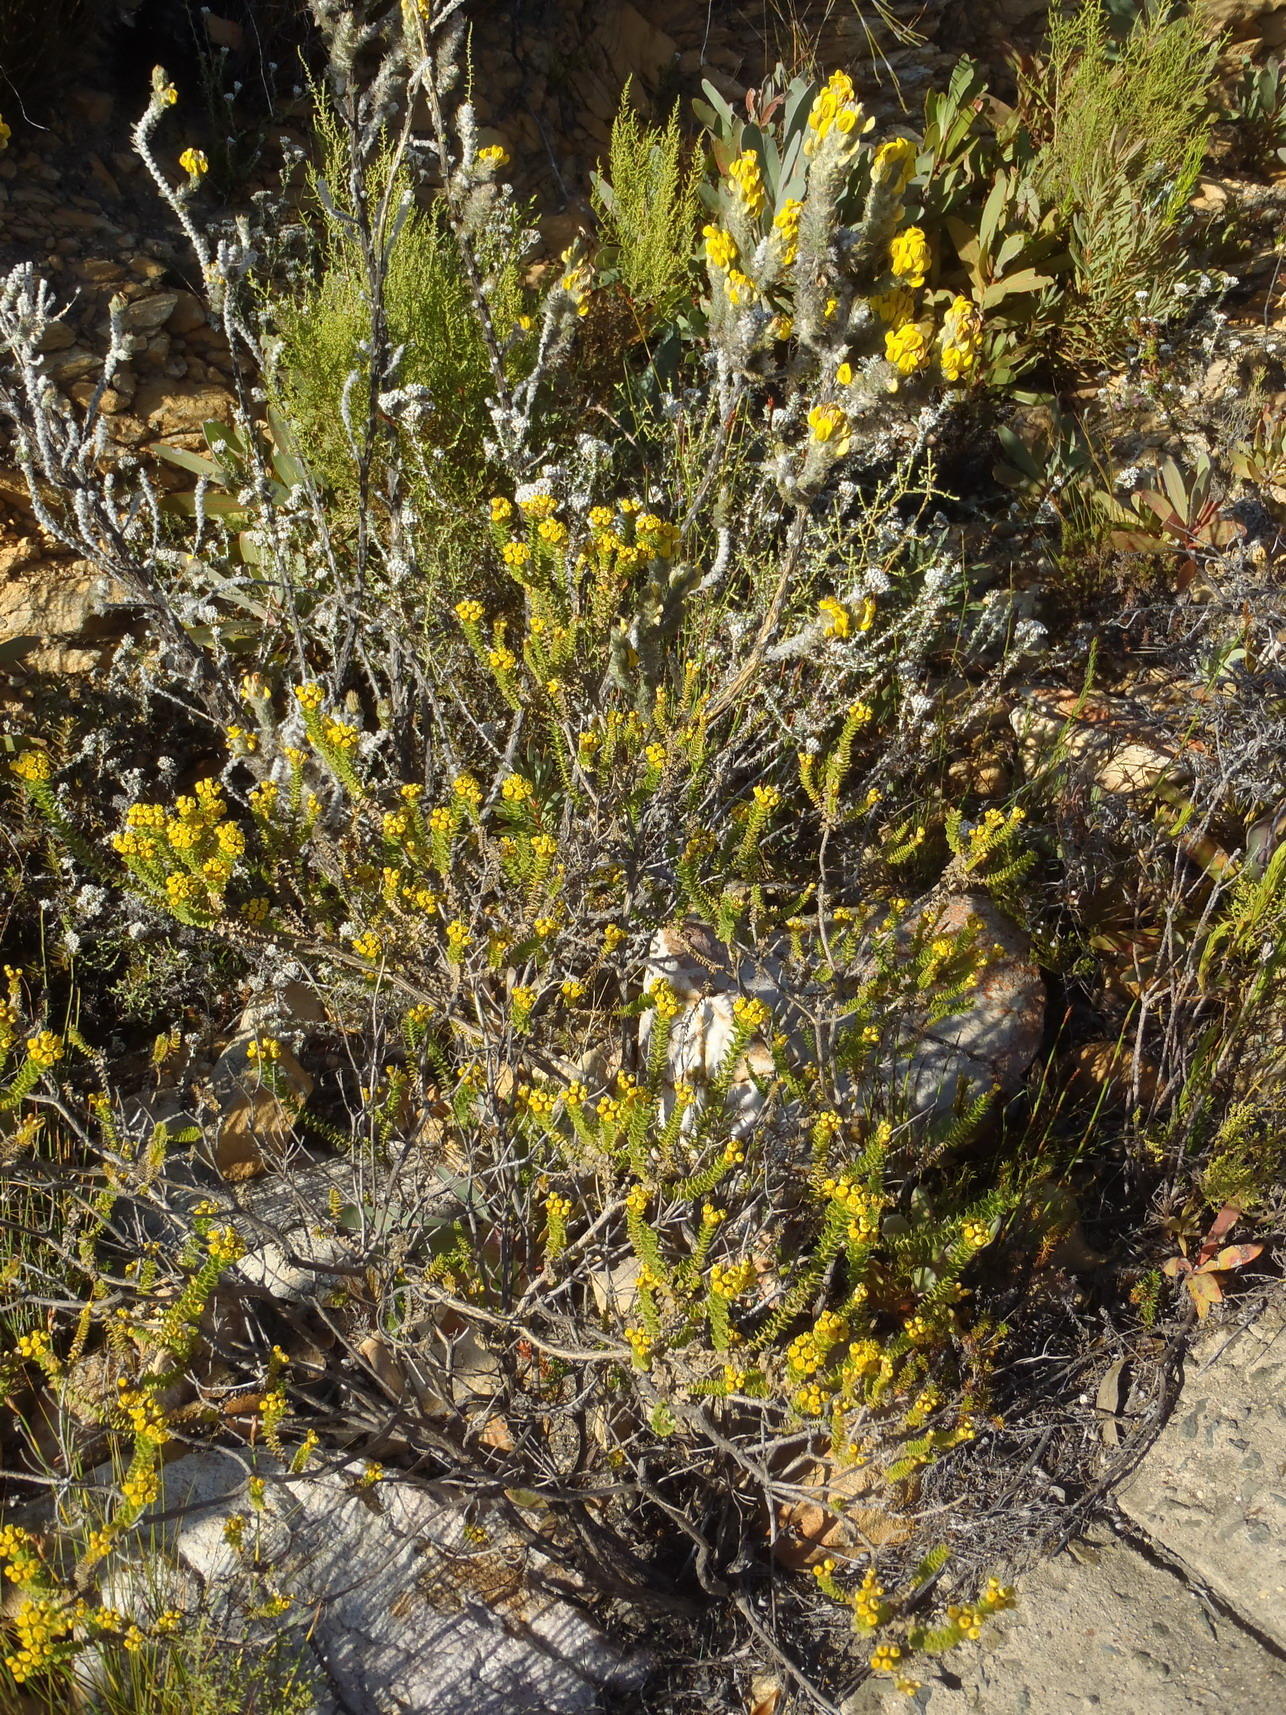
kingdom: Plantae
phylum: Tracheophyta
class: Magnoliopsida
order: Asterales
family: Asteraceae
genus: Oedera
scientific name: Oedera squarrosa
